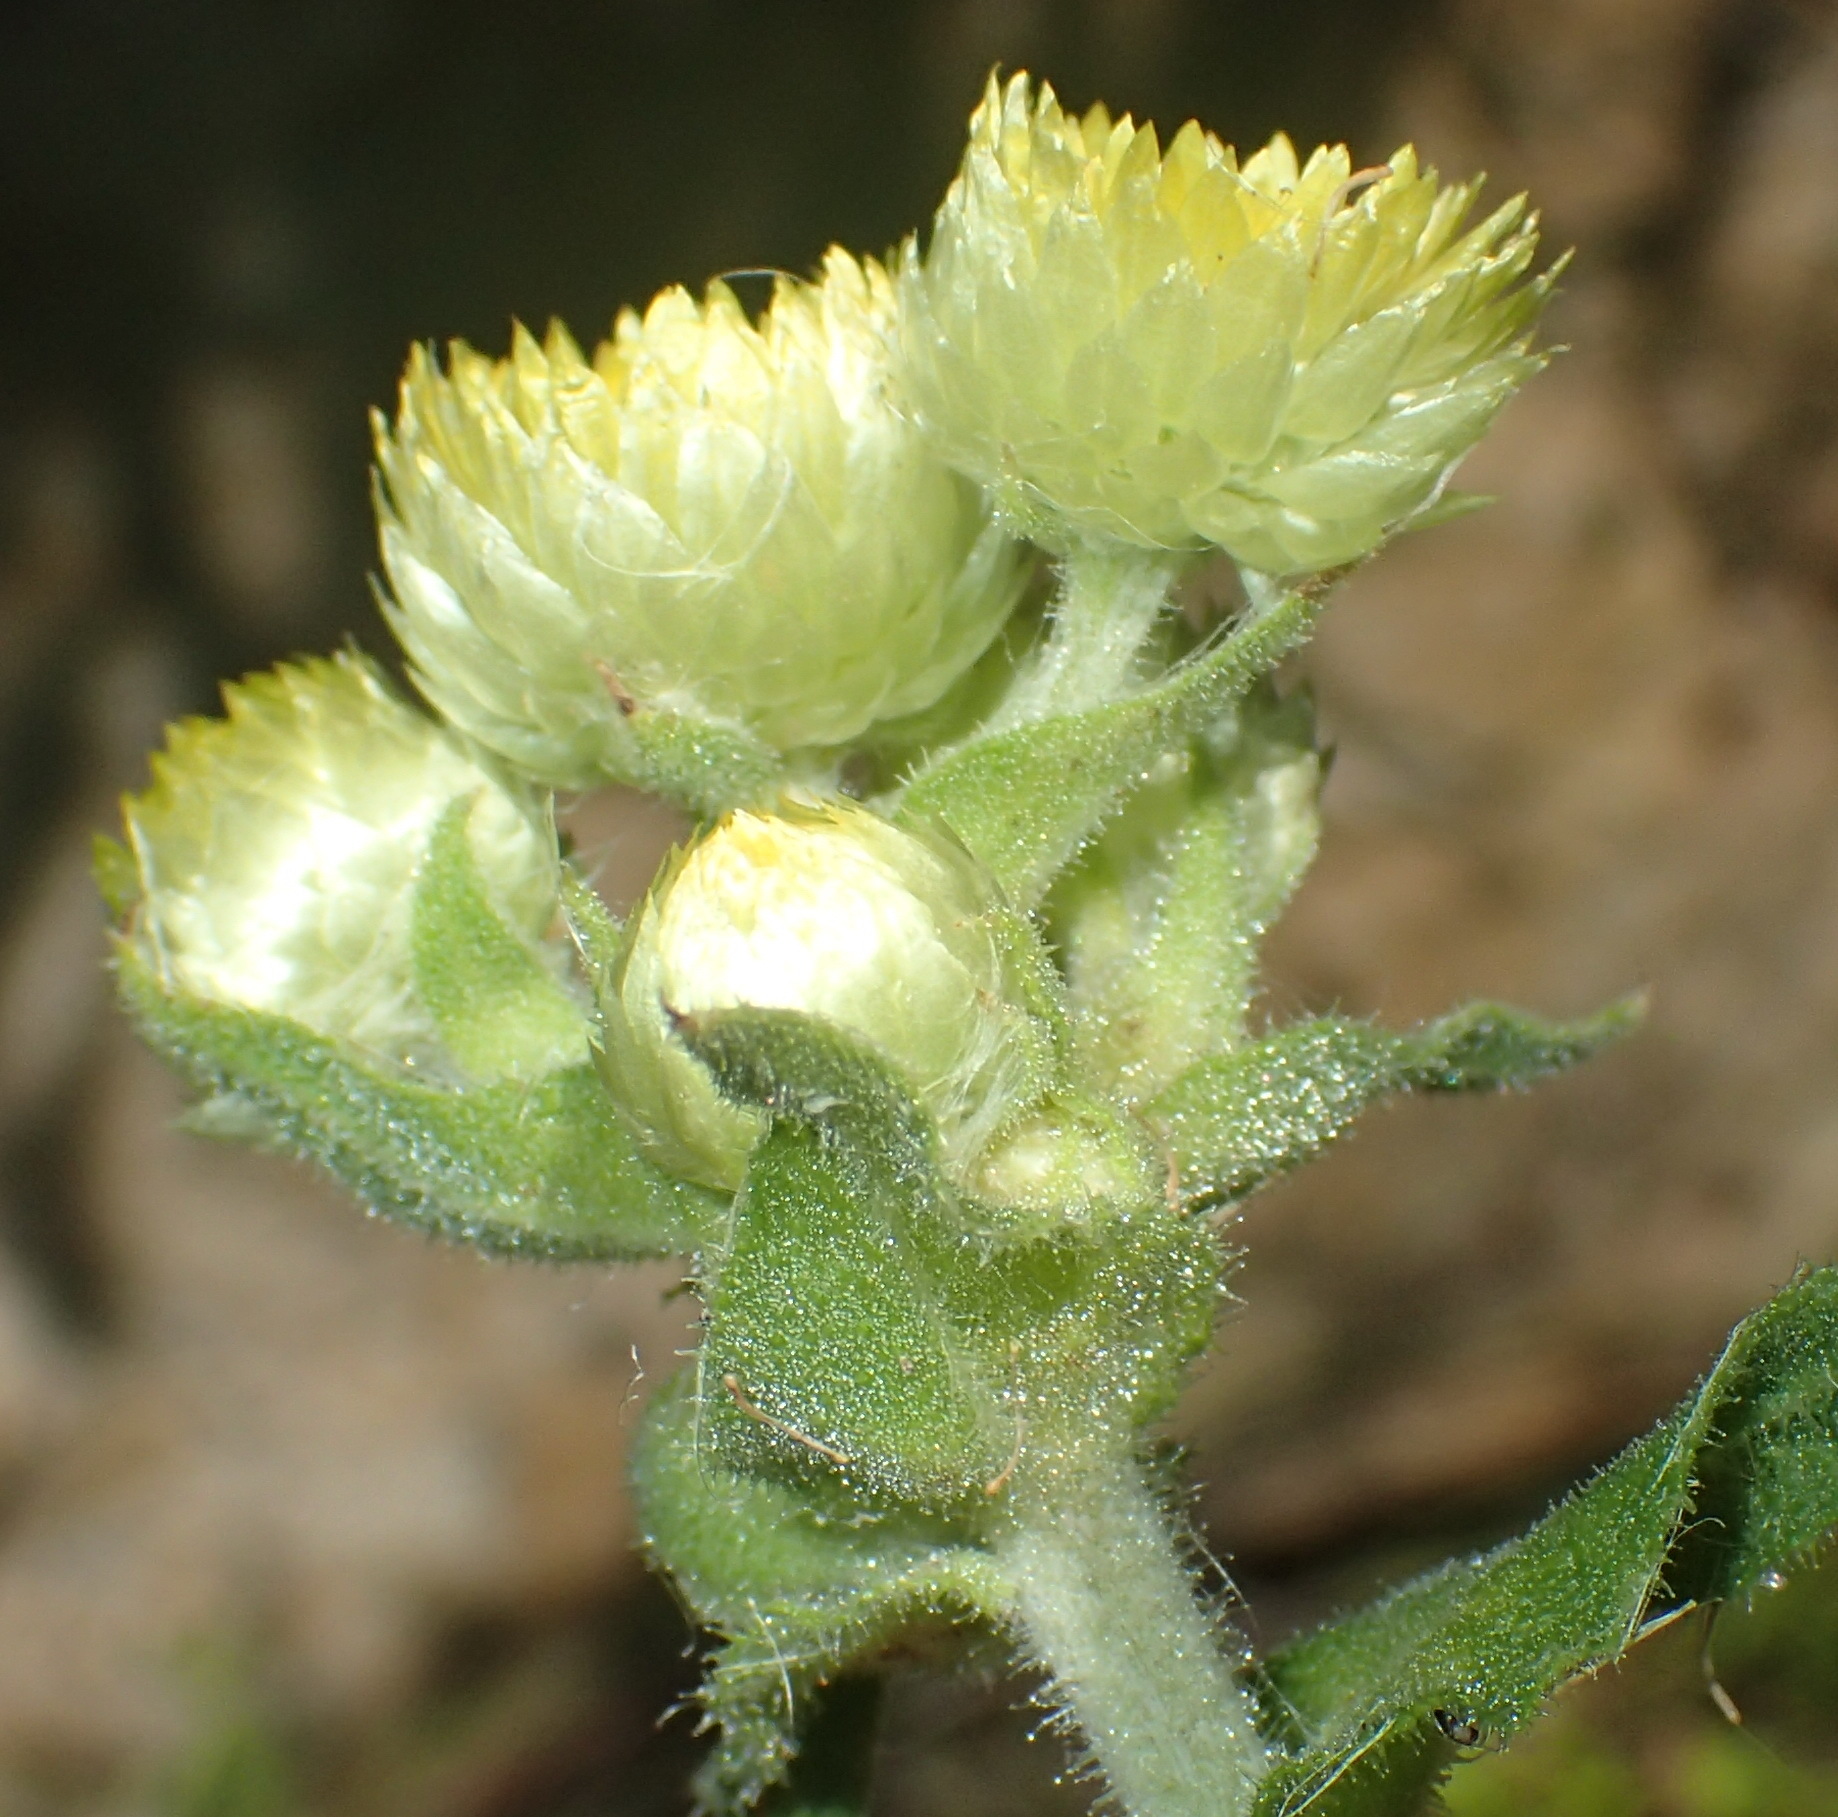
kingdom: Plantae
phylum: Tracheophyta
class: Magnoliopsida
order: Asterales
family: Asteraceae
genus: Helichrysum
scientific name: Helichrysum foetidum
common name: Stinking everlasting
